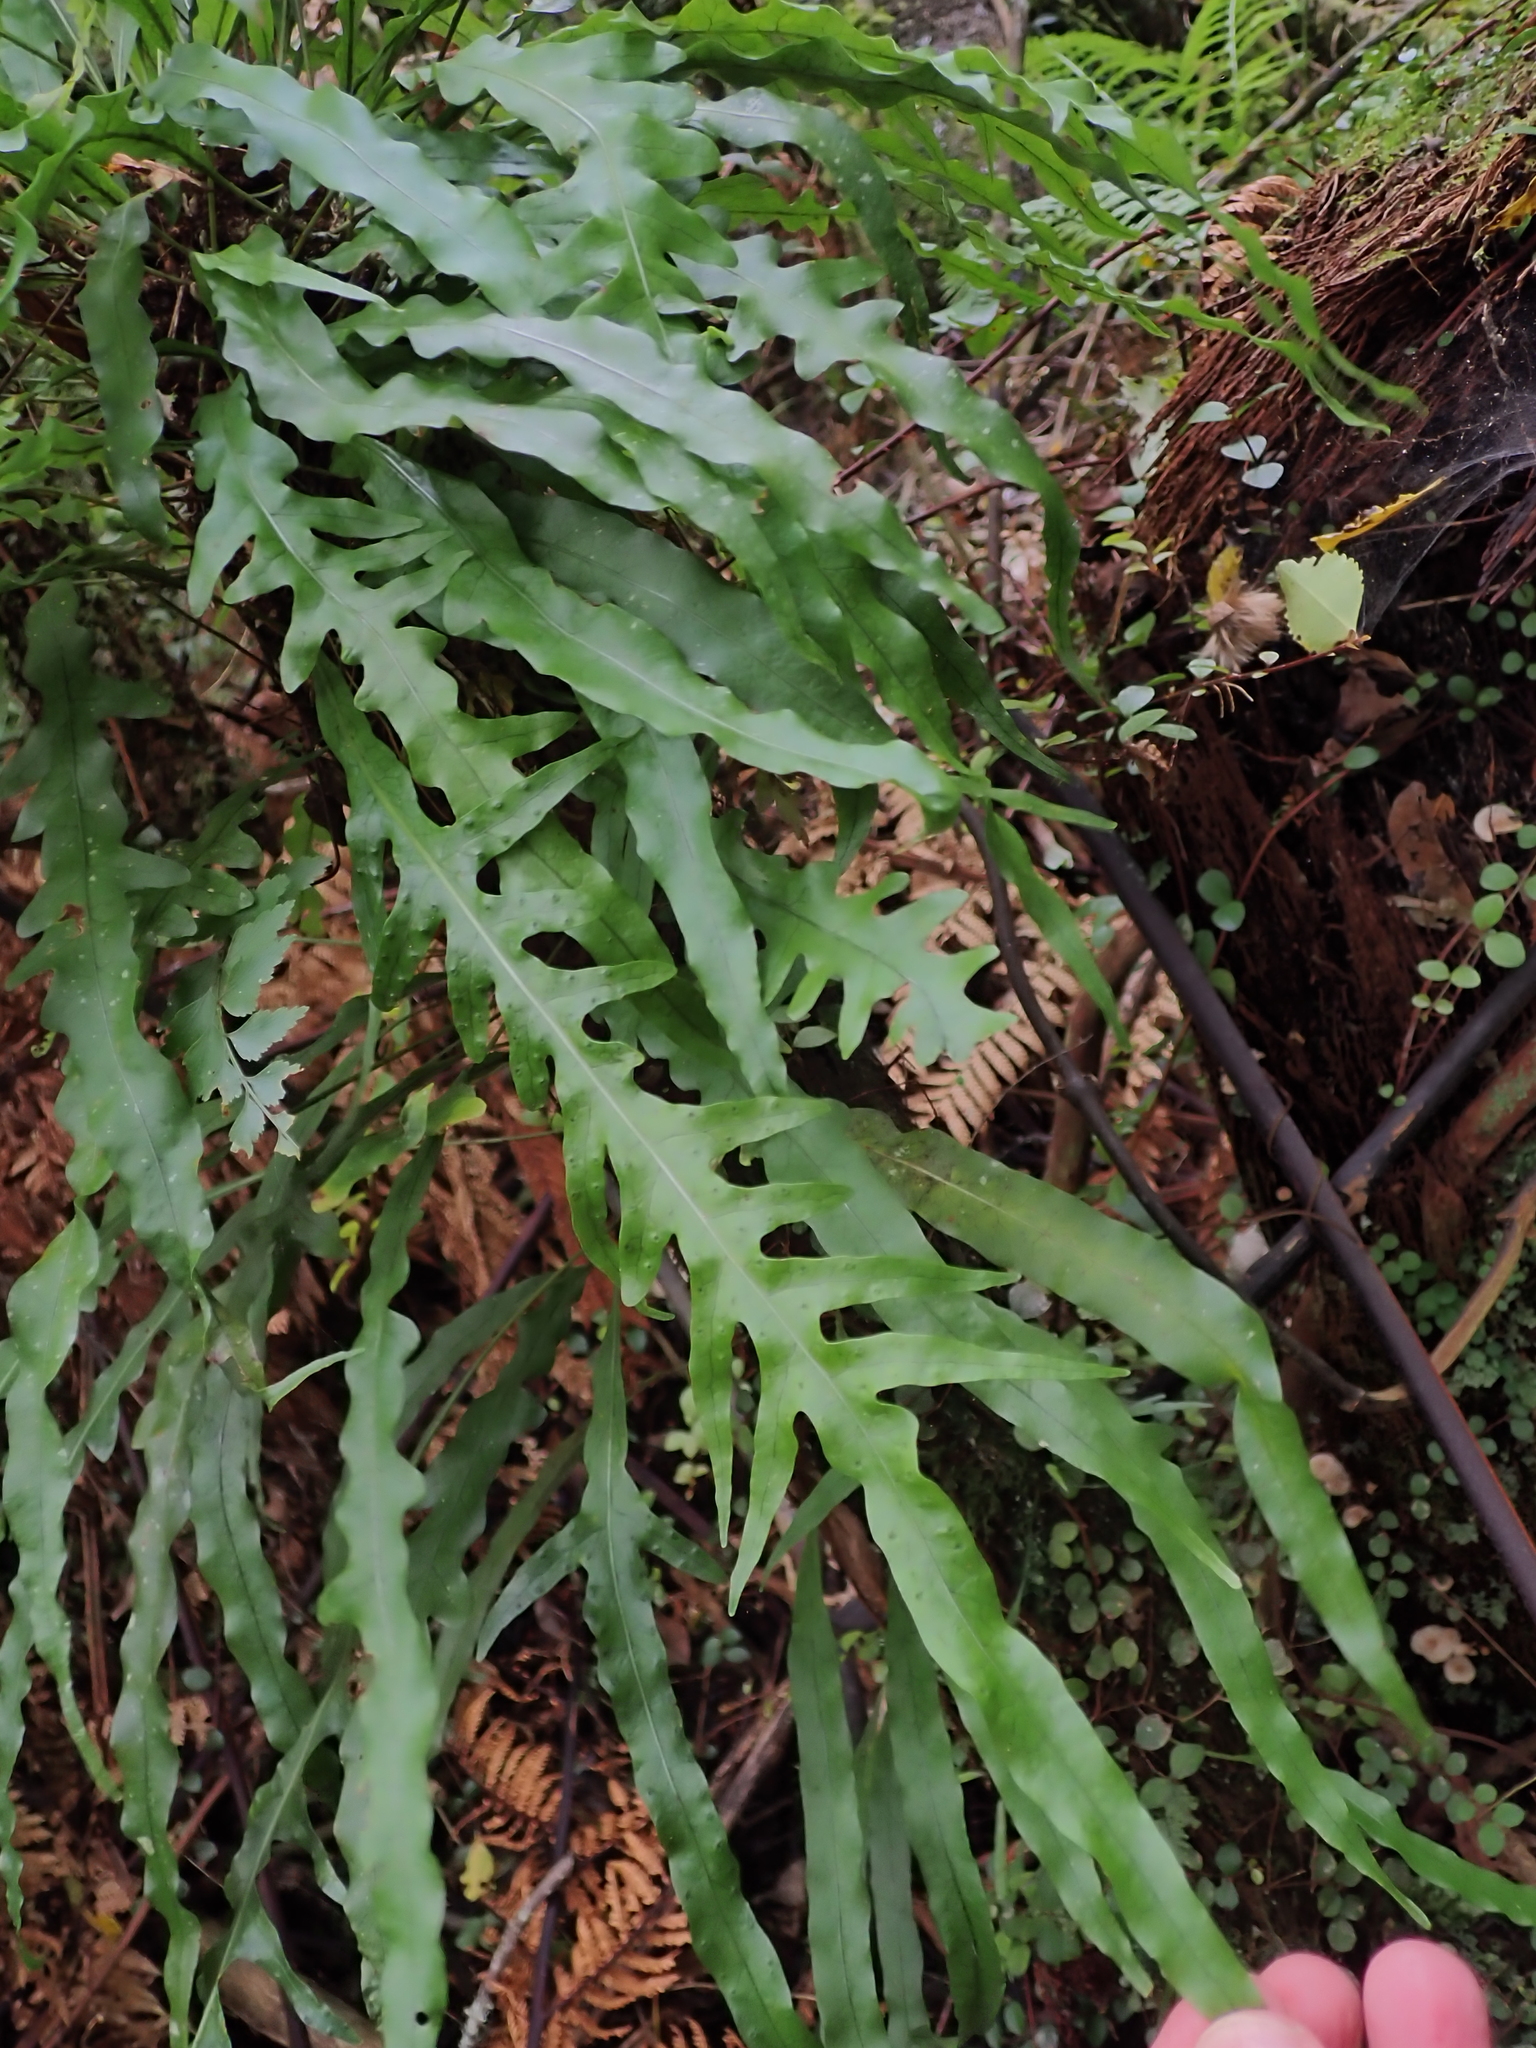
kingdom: Plantae
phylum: Tracheophyta
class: Polypodiopsida
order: Polypodiales
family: Polypodiaceae
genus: Lecanopteris
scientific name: Lecanopteris scandens
